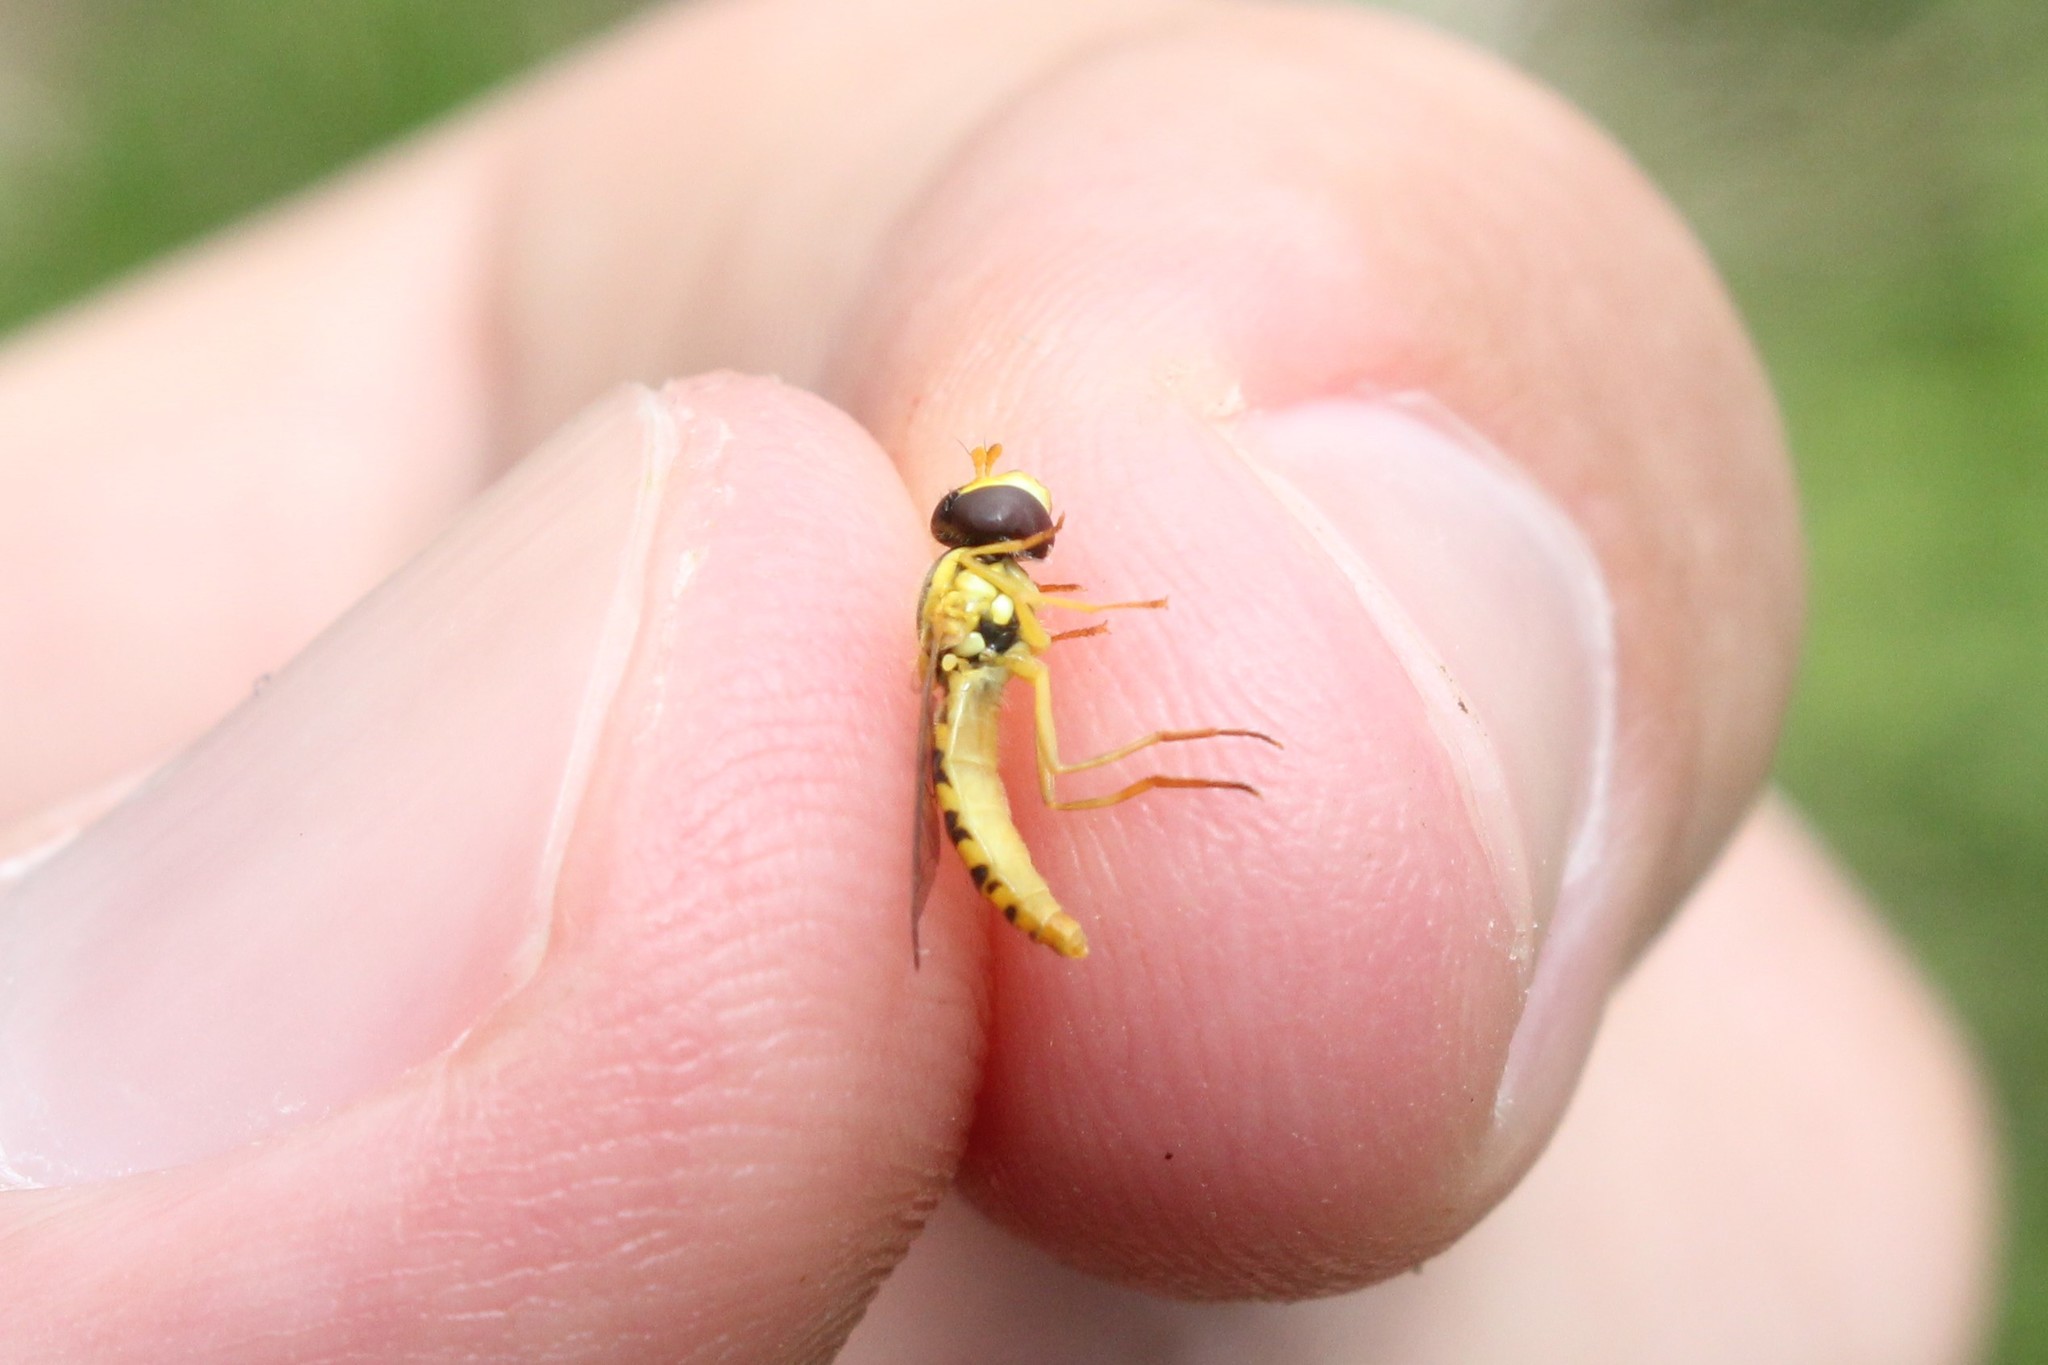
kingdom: Animalia
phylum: Arthropoda
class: Insecta
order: Diptera
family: Syrphidae
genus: Sphaerophoria
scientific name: Sphaerophoria
